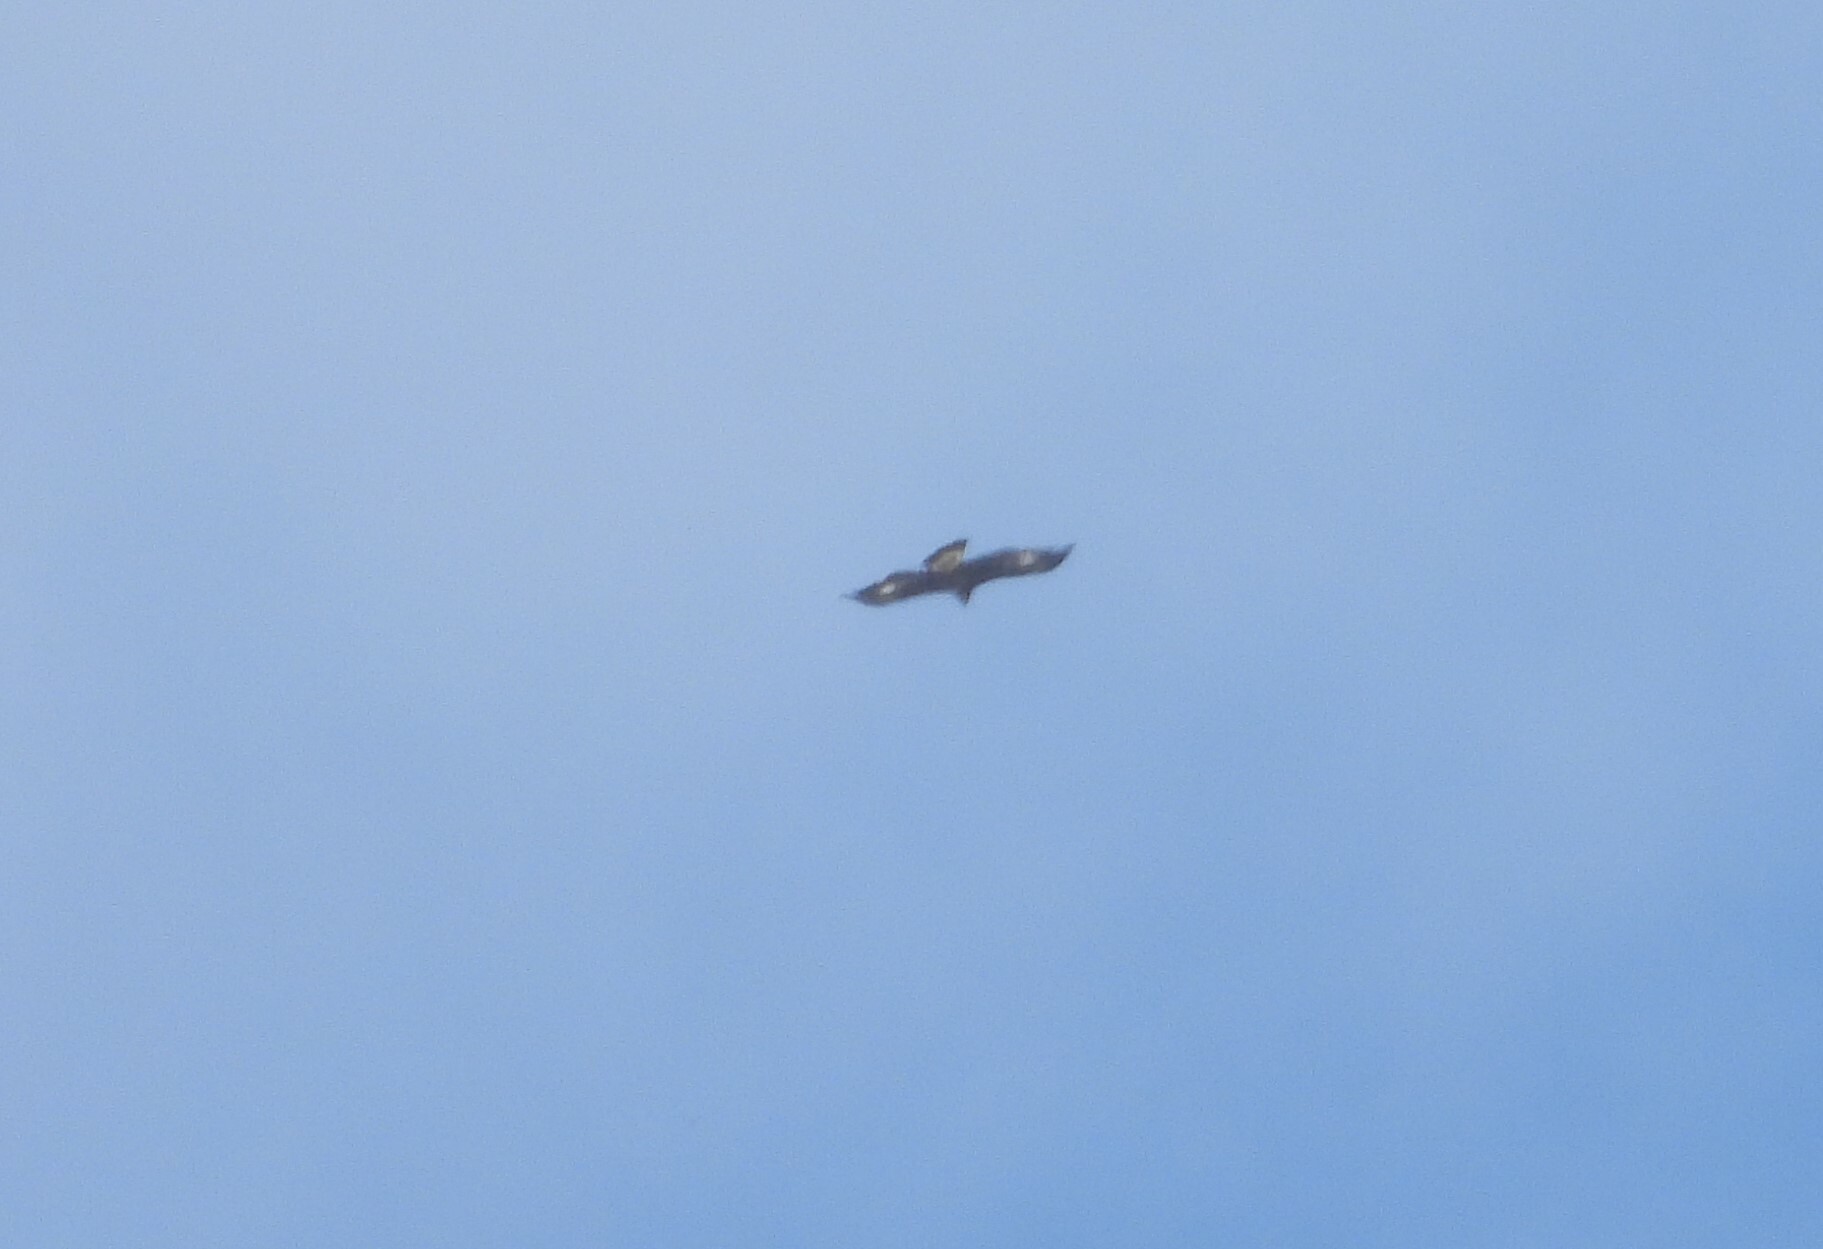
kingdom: Animalia
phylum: Chordata
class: Aves
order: Accipitriformes
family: Accipitridae
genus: Aquila
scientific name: Aquila chrysaetos
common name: Golden eagle
